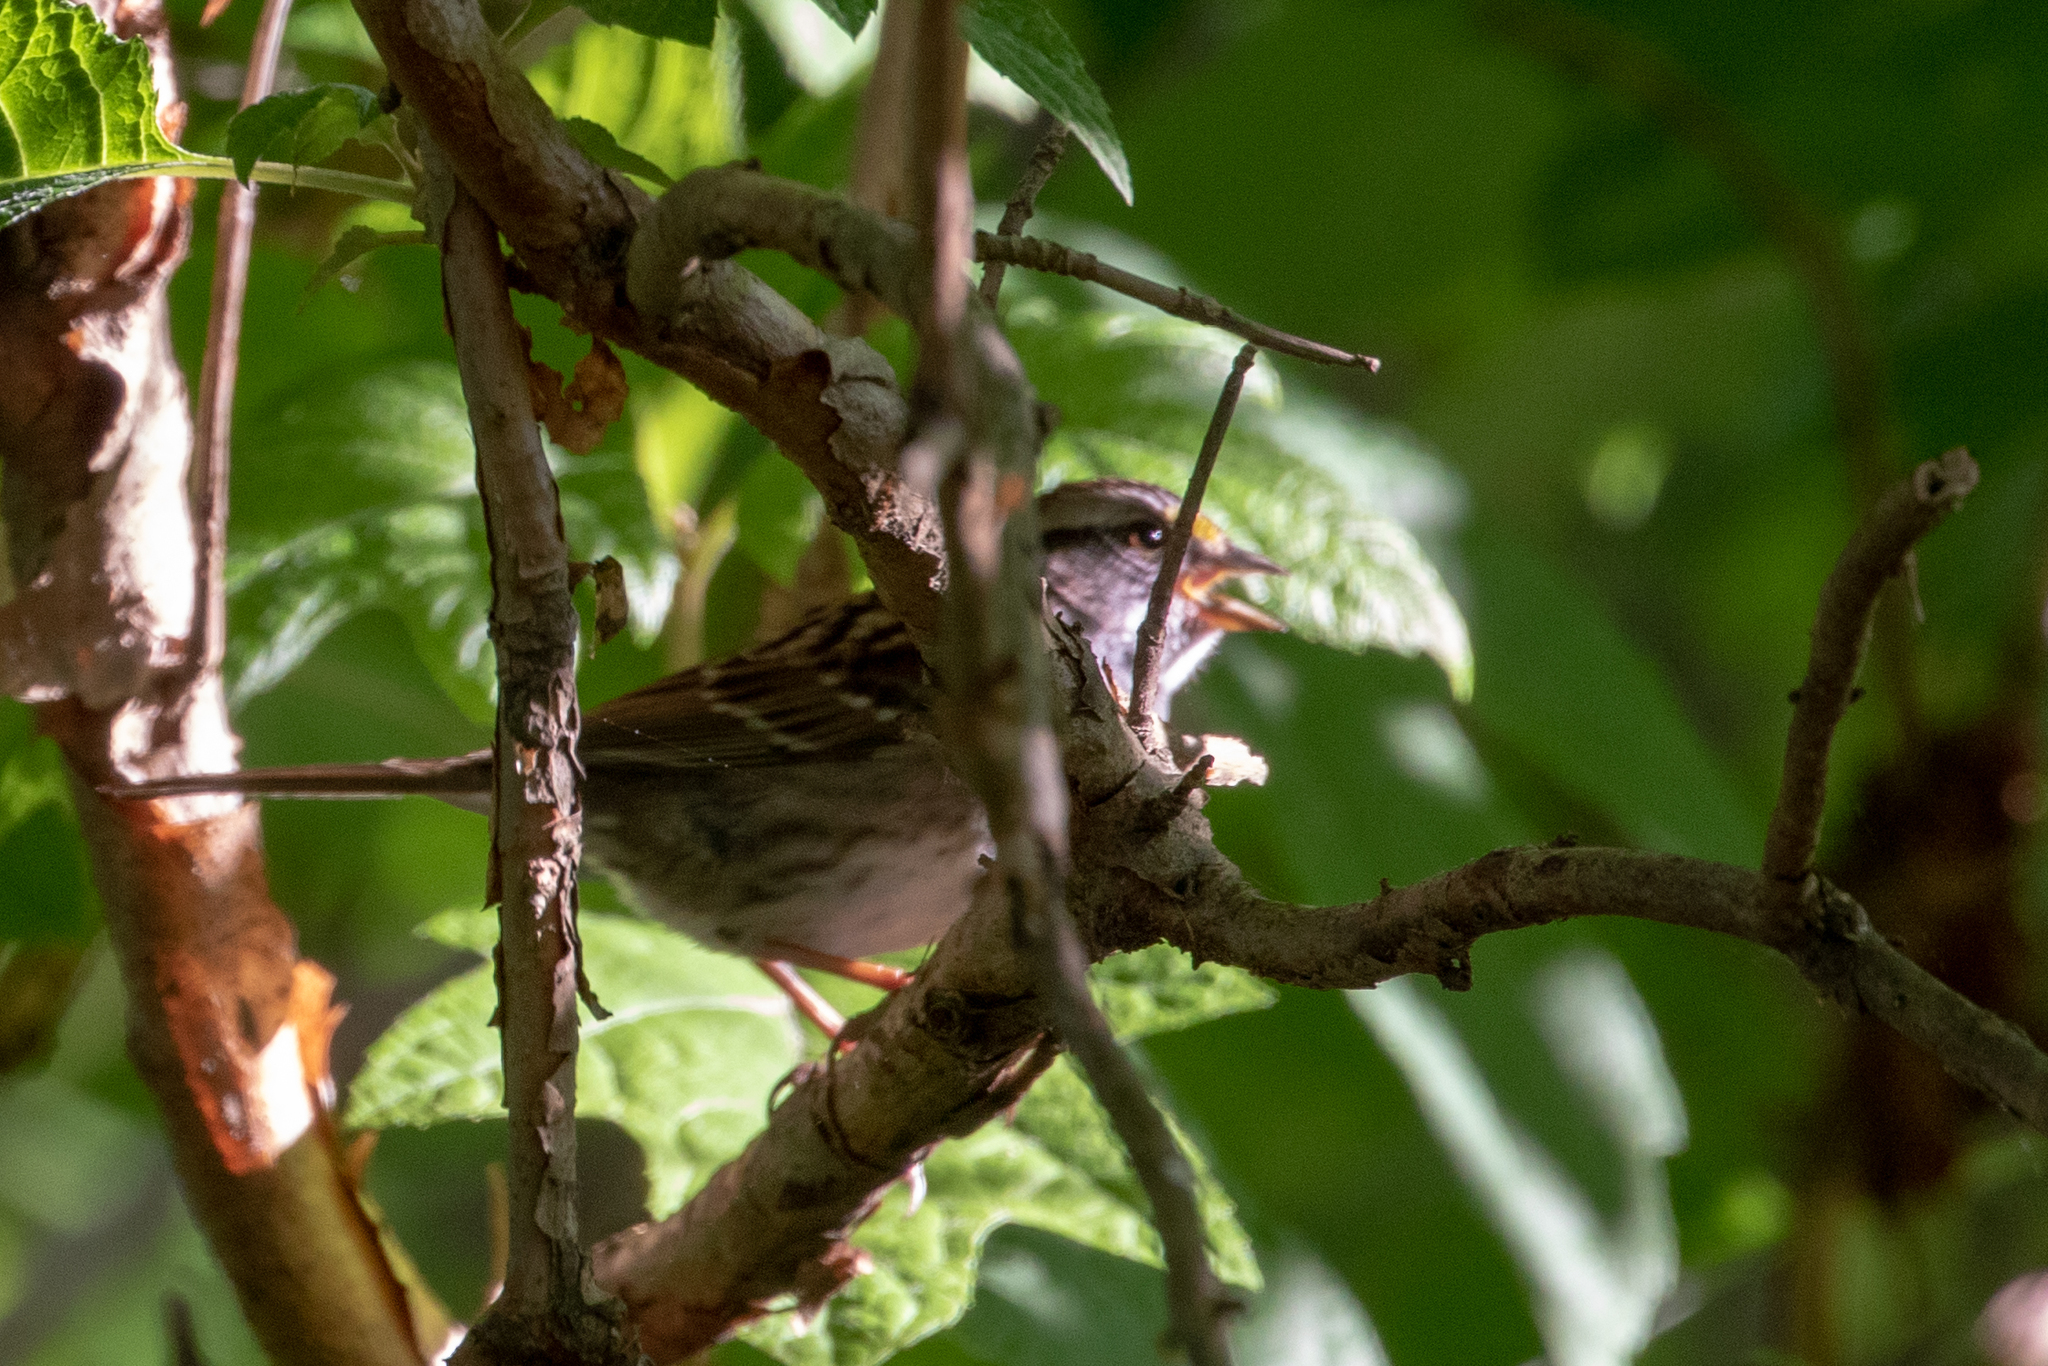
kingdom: Animalia
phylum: Chordata
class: Aves
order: Passeriformes
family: Passerellidae
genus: Zonotrichia
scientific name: Zonotrichia albicollis
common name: White-throated sparrow
